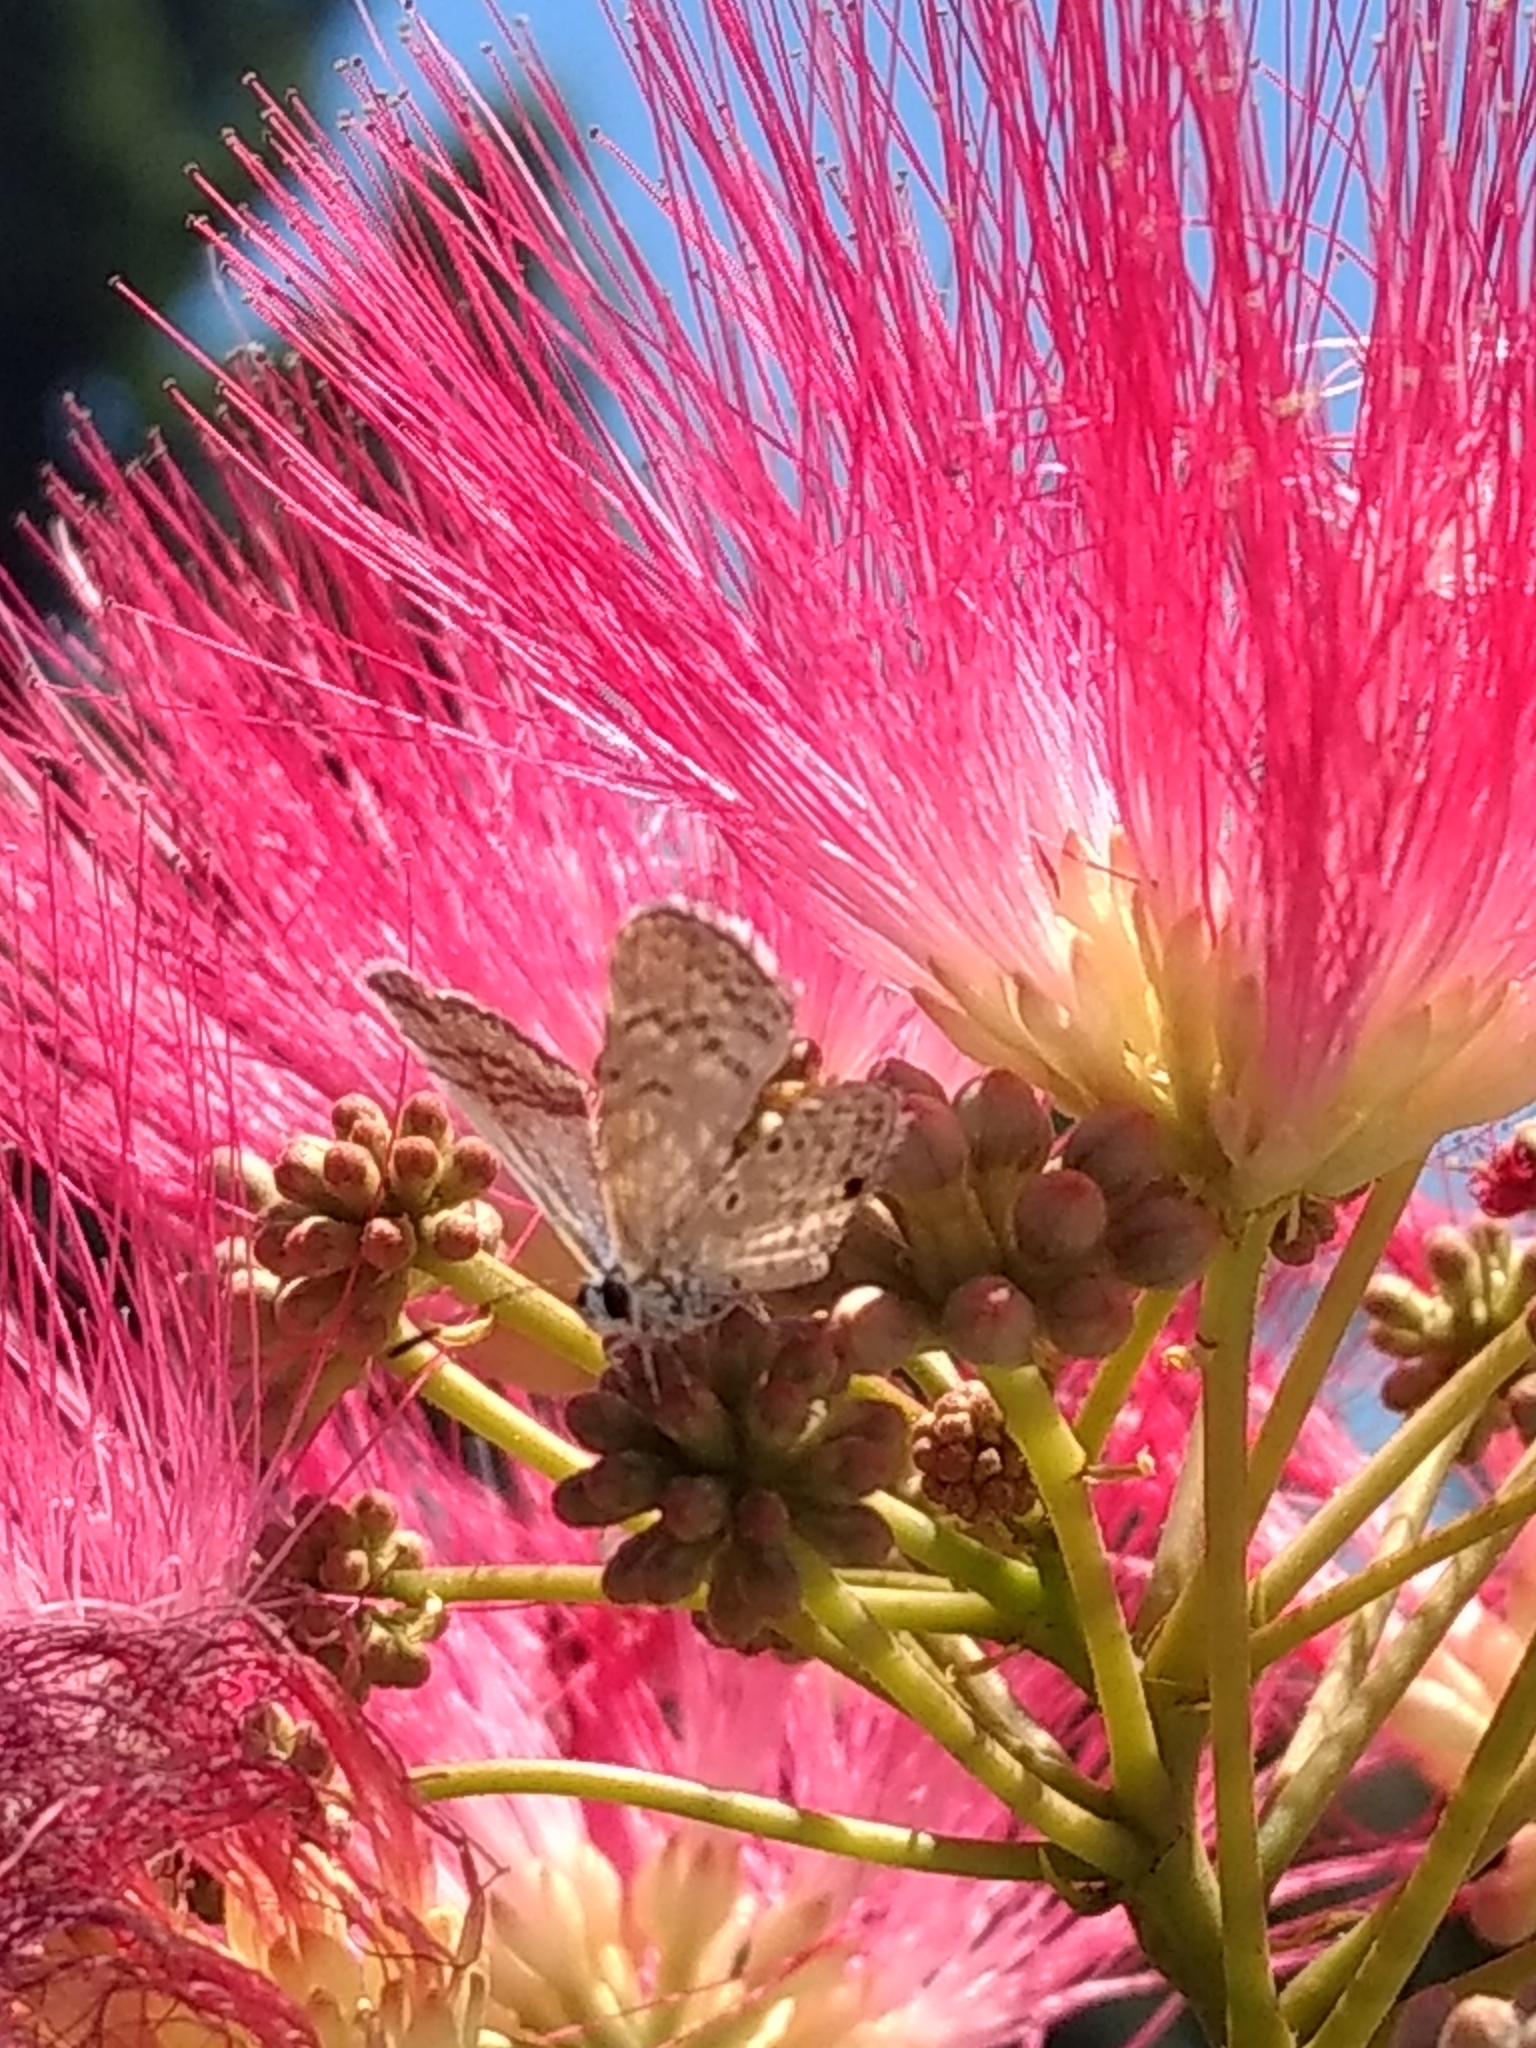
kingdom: Animalia
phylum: Arthropoda
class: Insecta
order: Lepidoptera
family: Lycaenidae
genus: Hemiargus
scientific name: Hemiargus ceraunus
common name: Ceraunus blue
